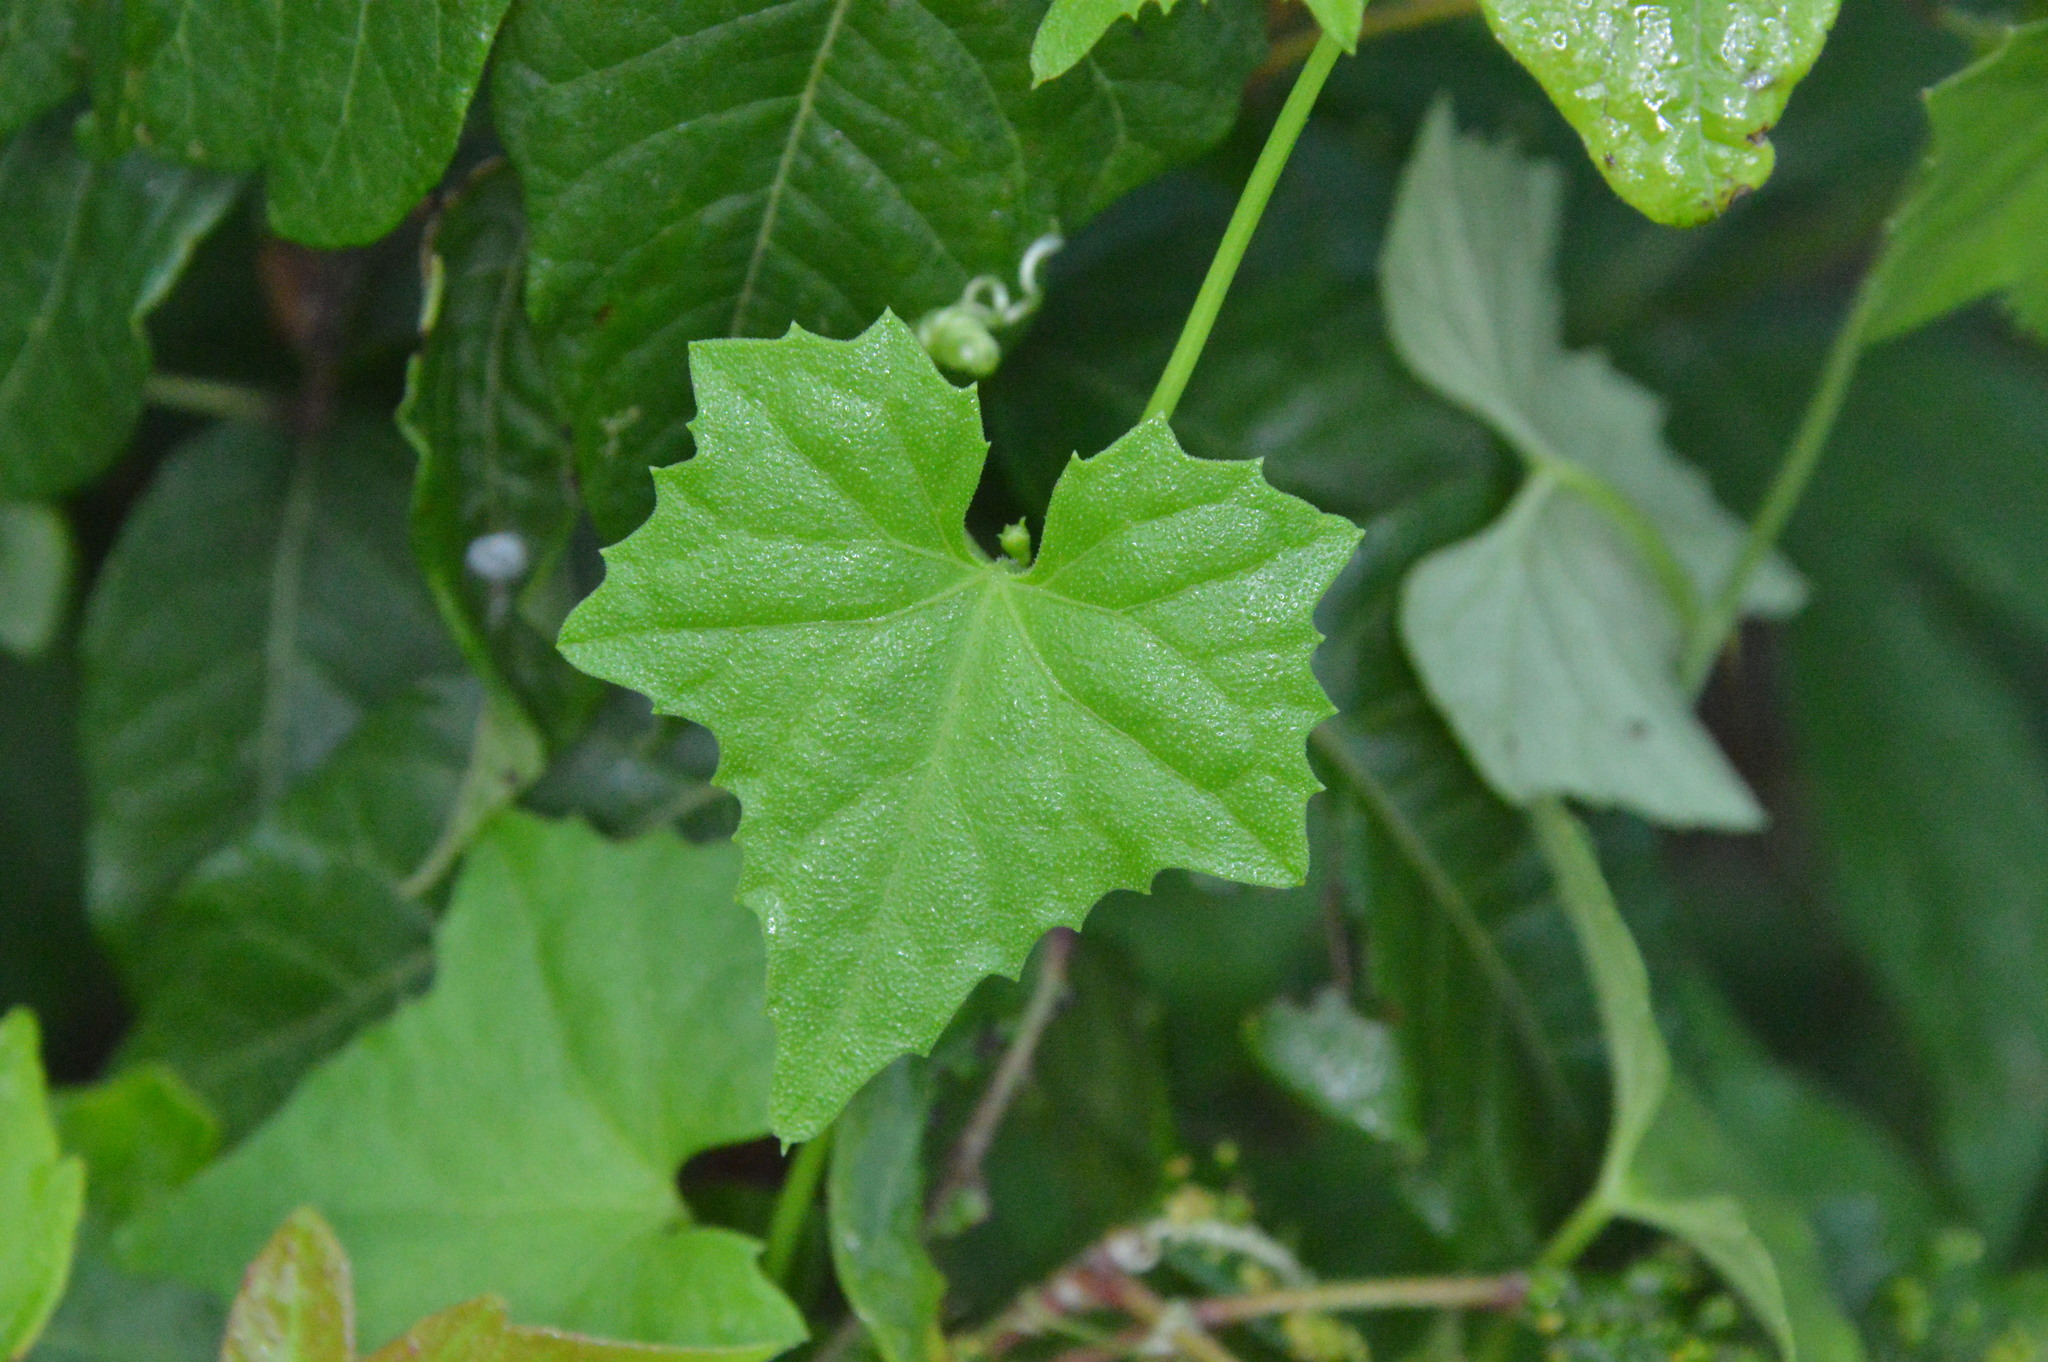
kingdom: Plantae
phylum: Tracheophyta
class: Magnoliopsida
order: Cucurbitales
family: Cucurbitaceae
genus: Melothria
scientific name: Melothria pendula
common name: Creeping-cucumber
